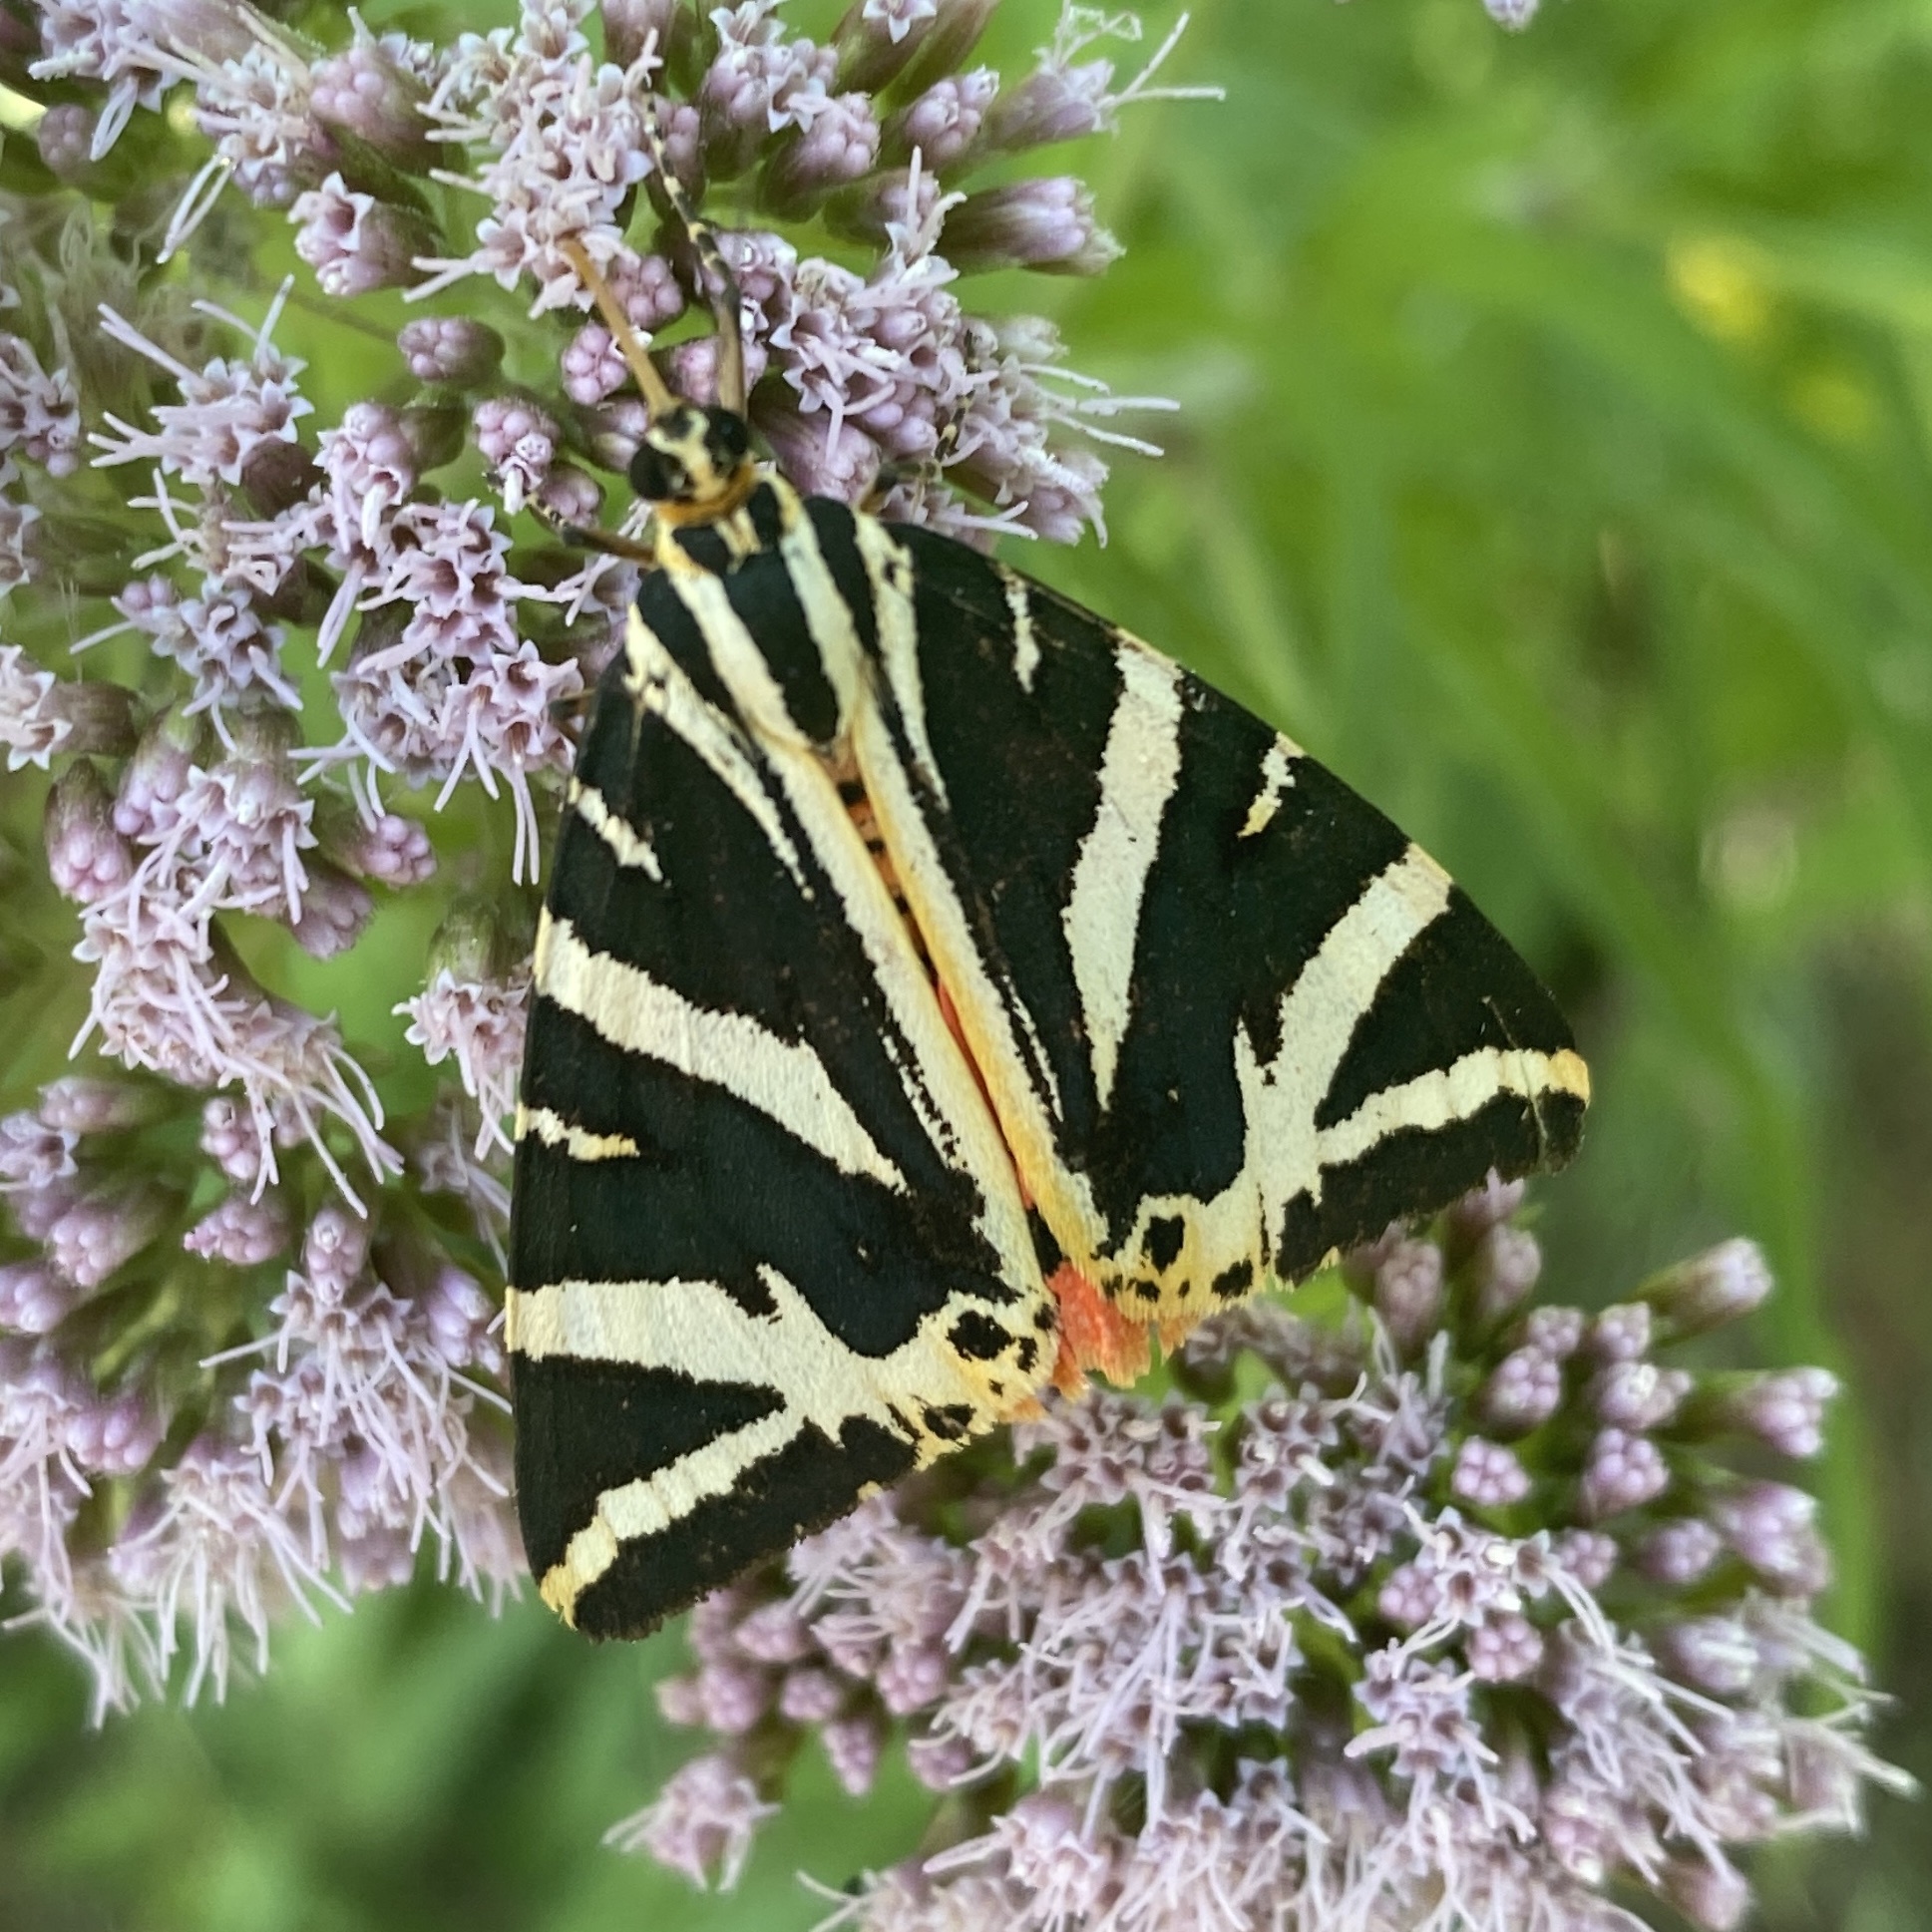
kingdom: Animalia
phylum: Arthropoda
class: Insecta
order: Lepidoptera
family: Erebidae
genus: Euplagia
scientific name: Euplagia quadripunctaria
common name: Jersey tiger
